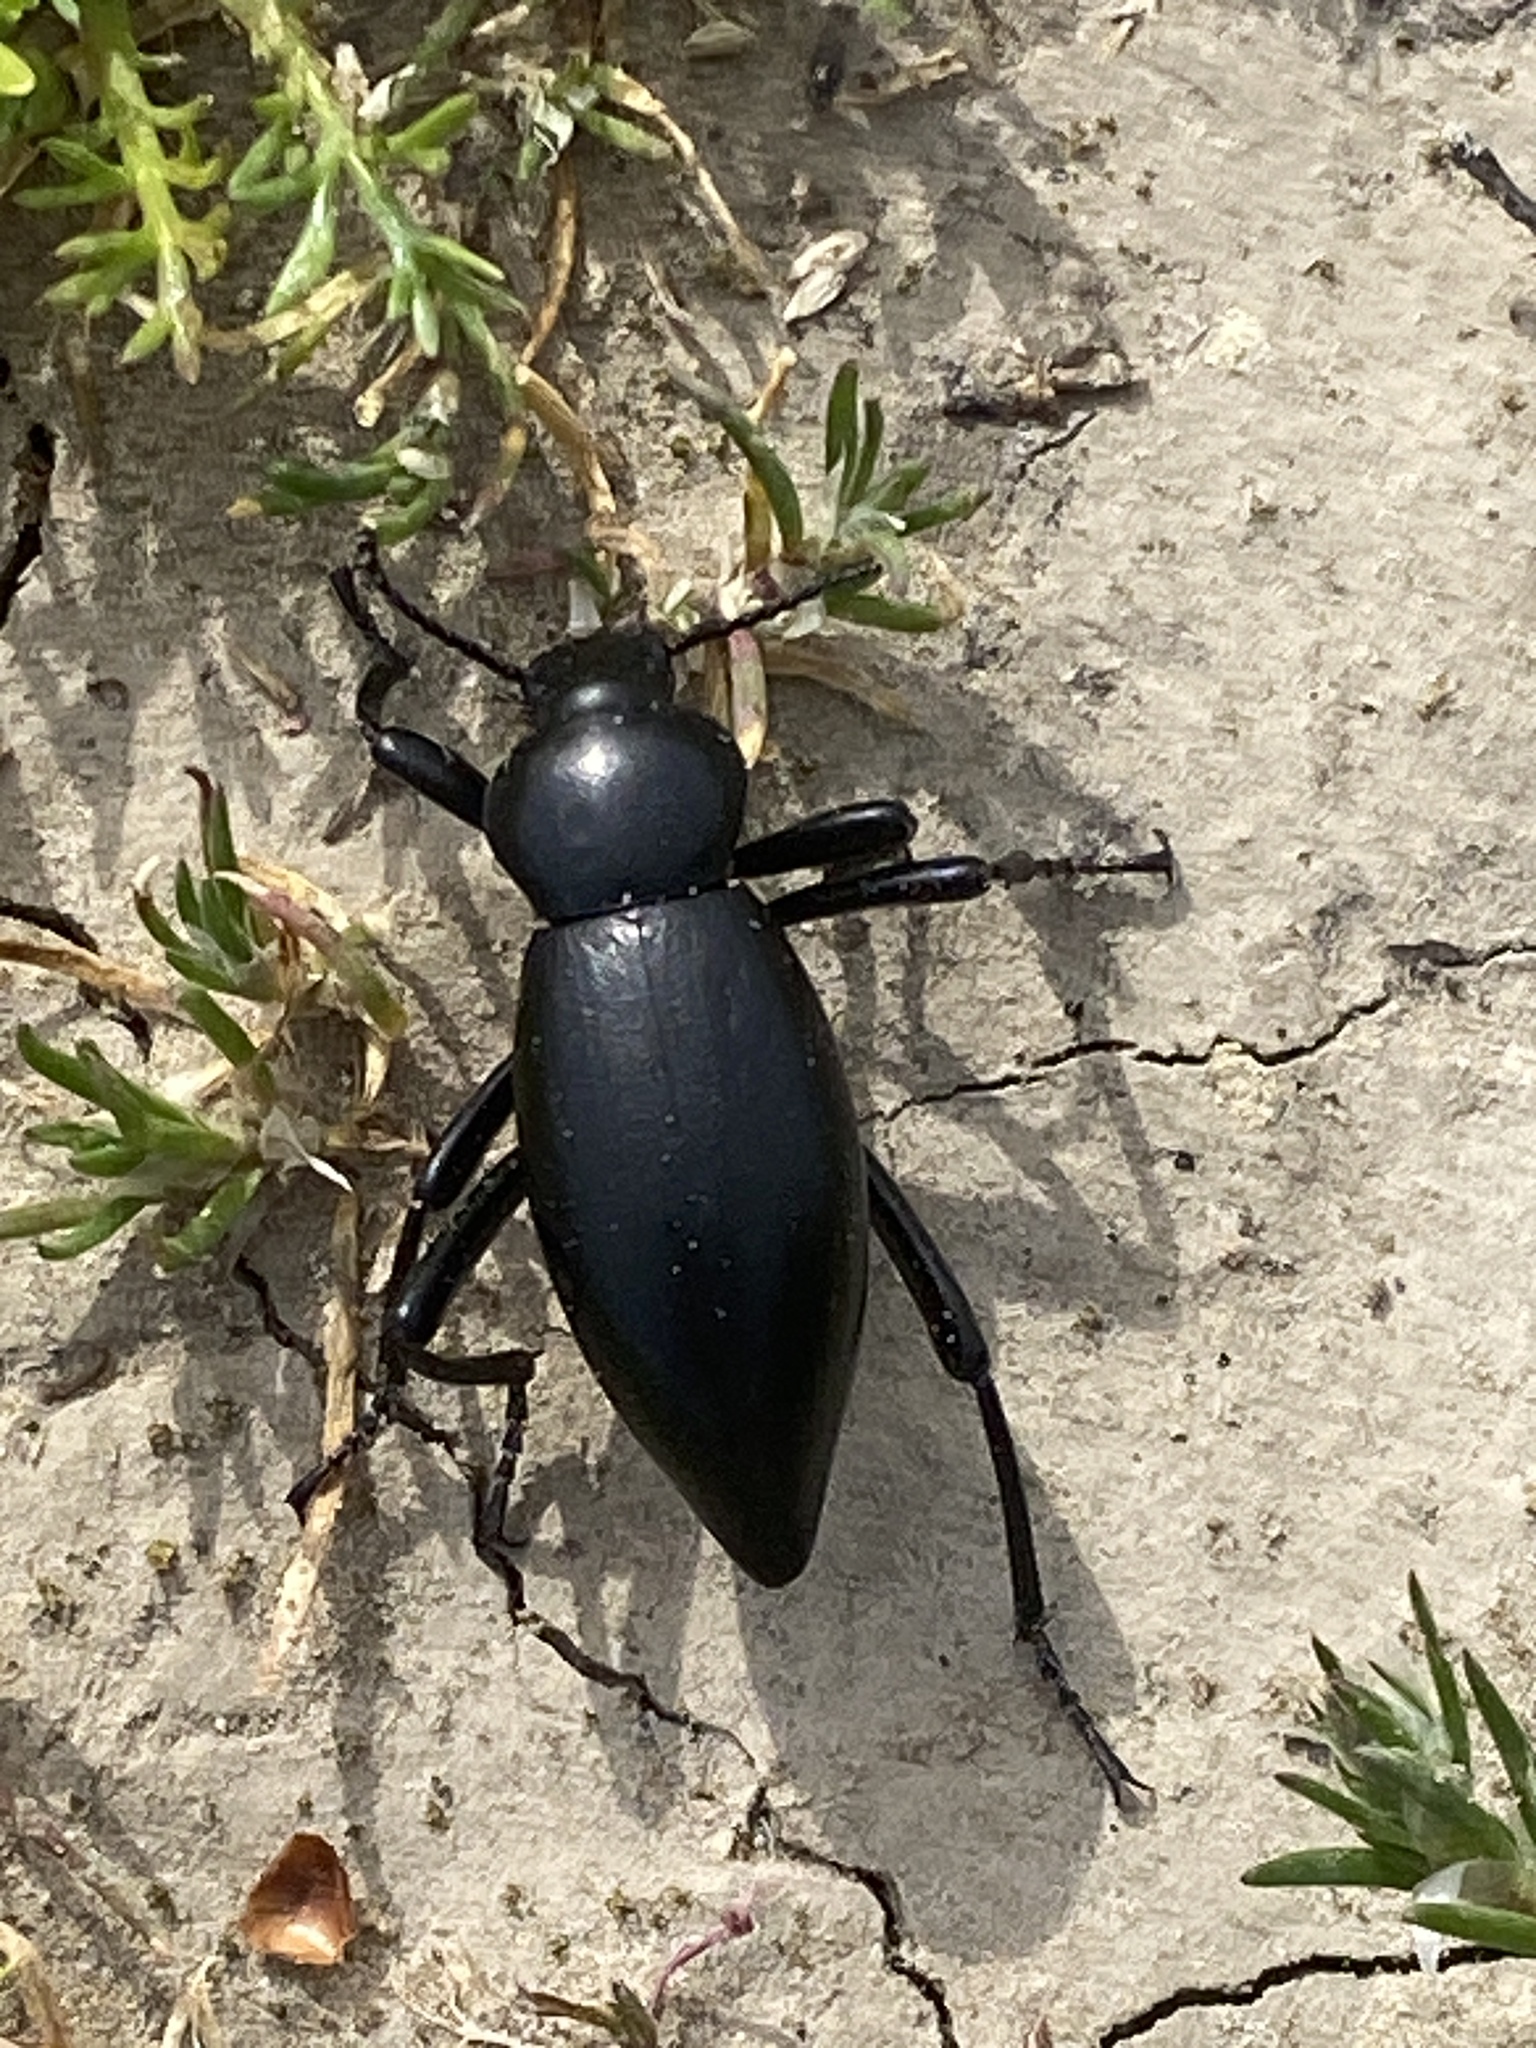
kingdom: Animalia
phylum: Arthropoda
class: Insecta
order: Coleoptera
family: Tenebrionidae
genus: Eleodes
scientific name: Eleodes dentipes
